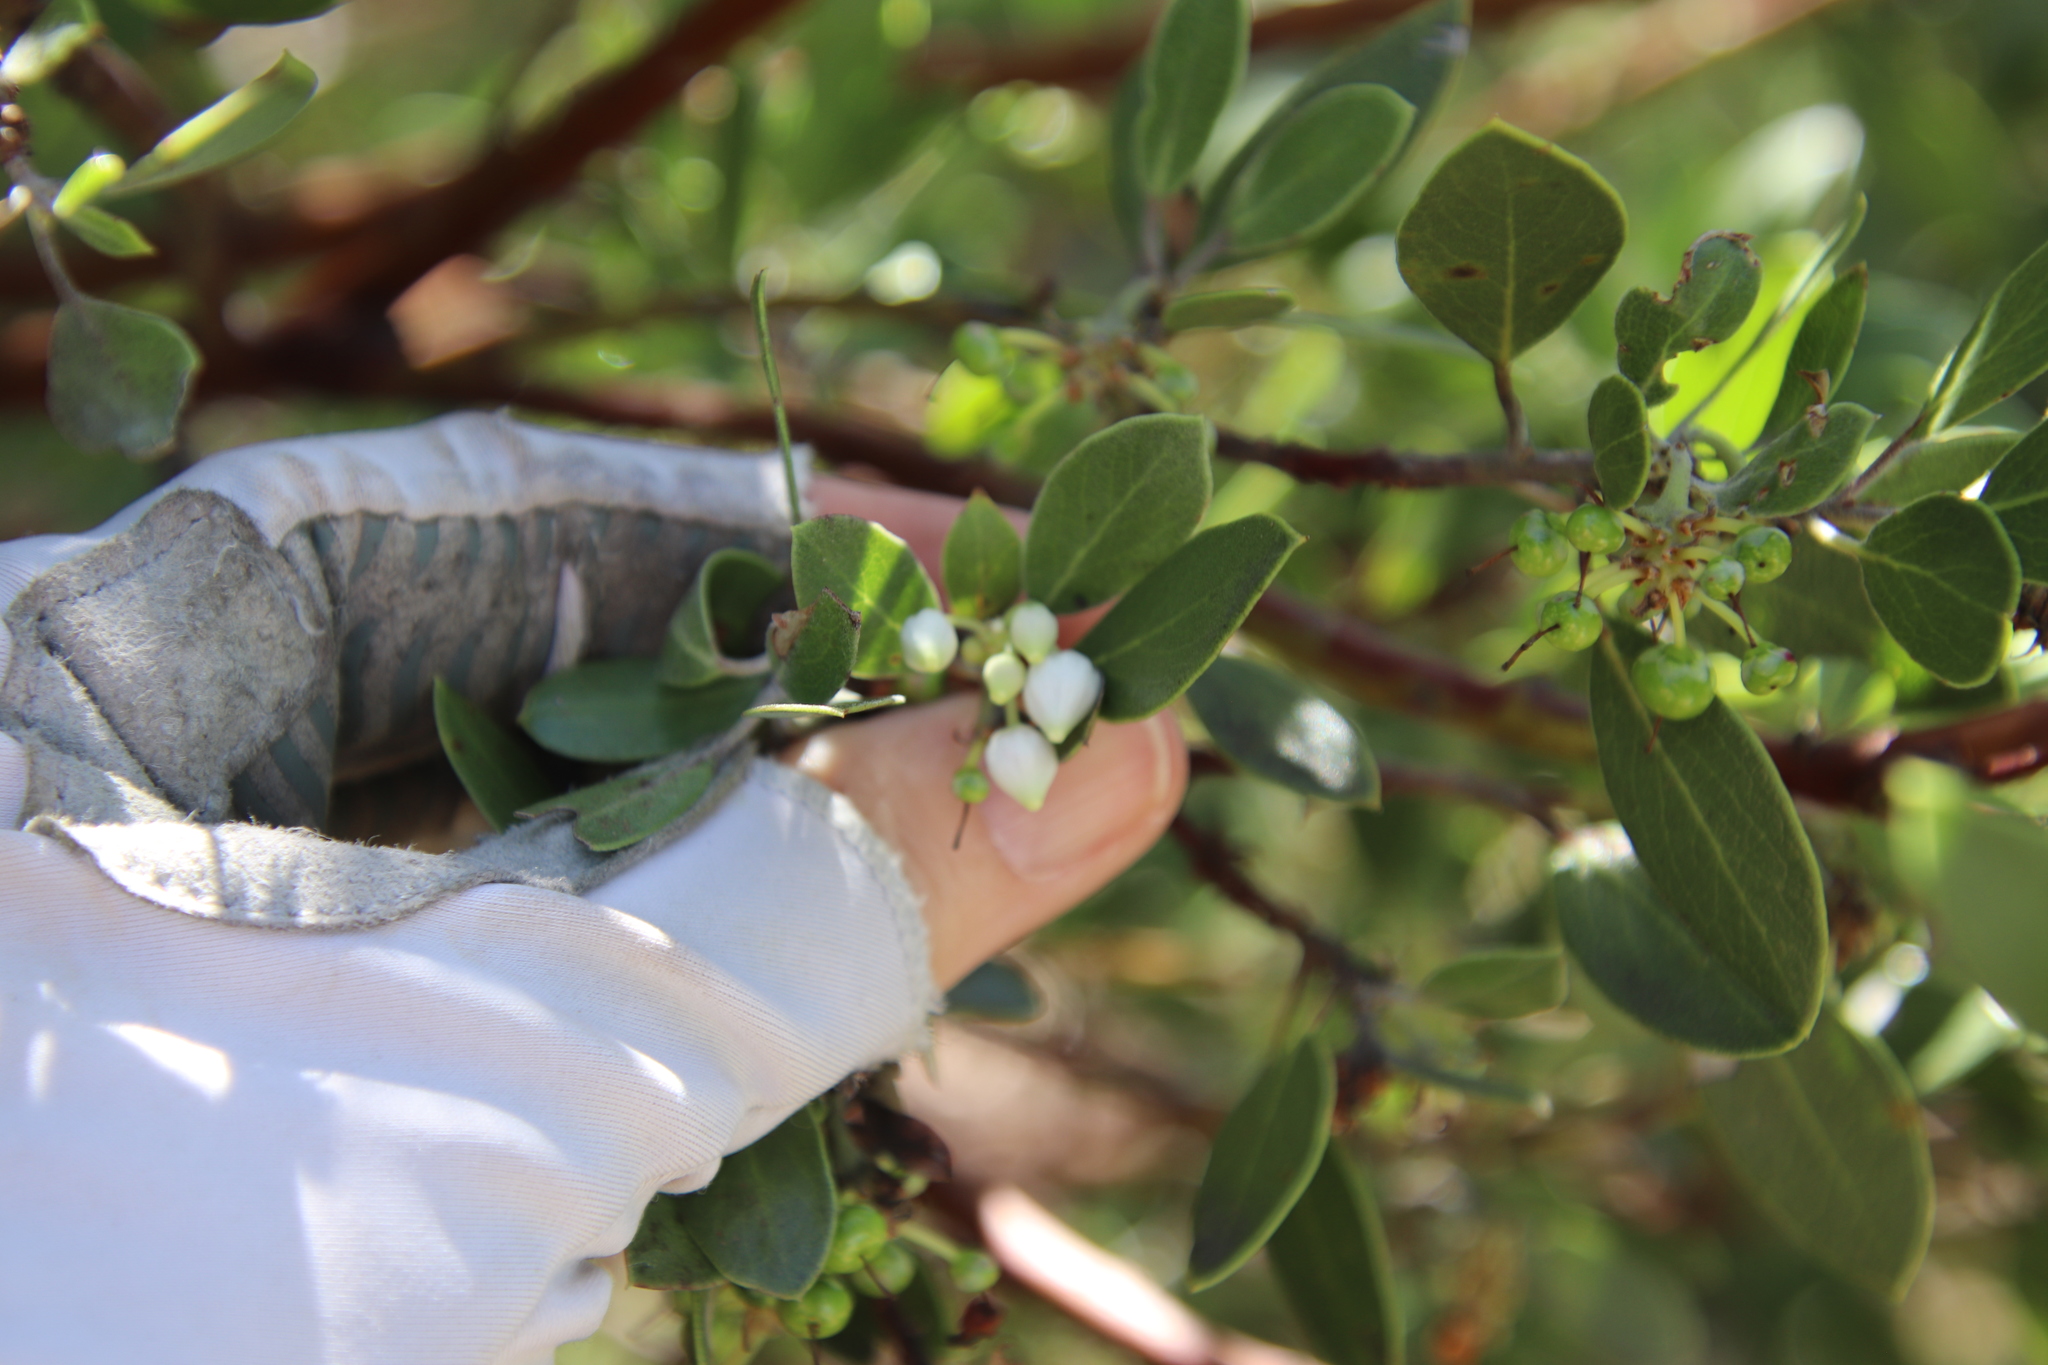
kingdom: Plantae
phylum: Tracheophyta
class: Magnoliopsida
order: Ericales
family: Ericaceae
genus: Arctostaphylos
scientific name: Arctostaphylos pungens
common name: Mexican manzanita
